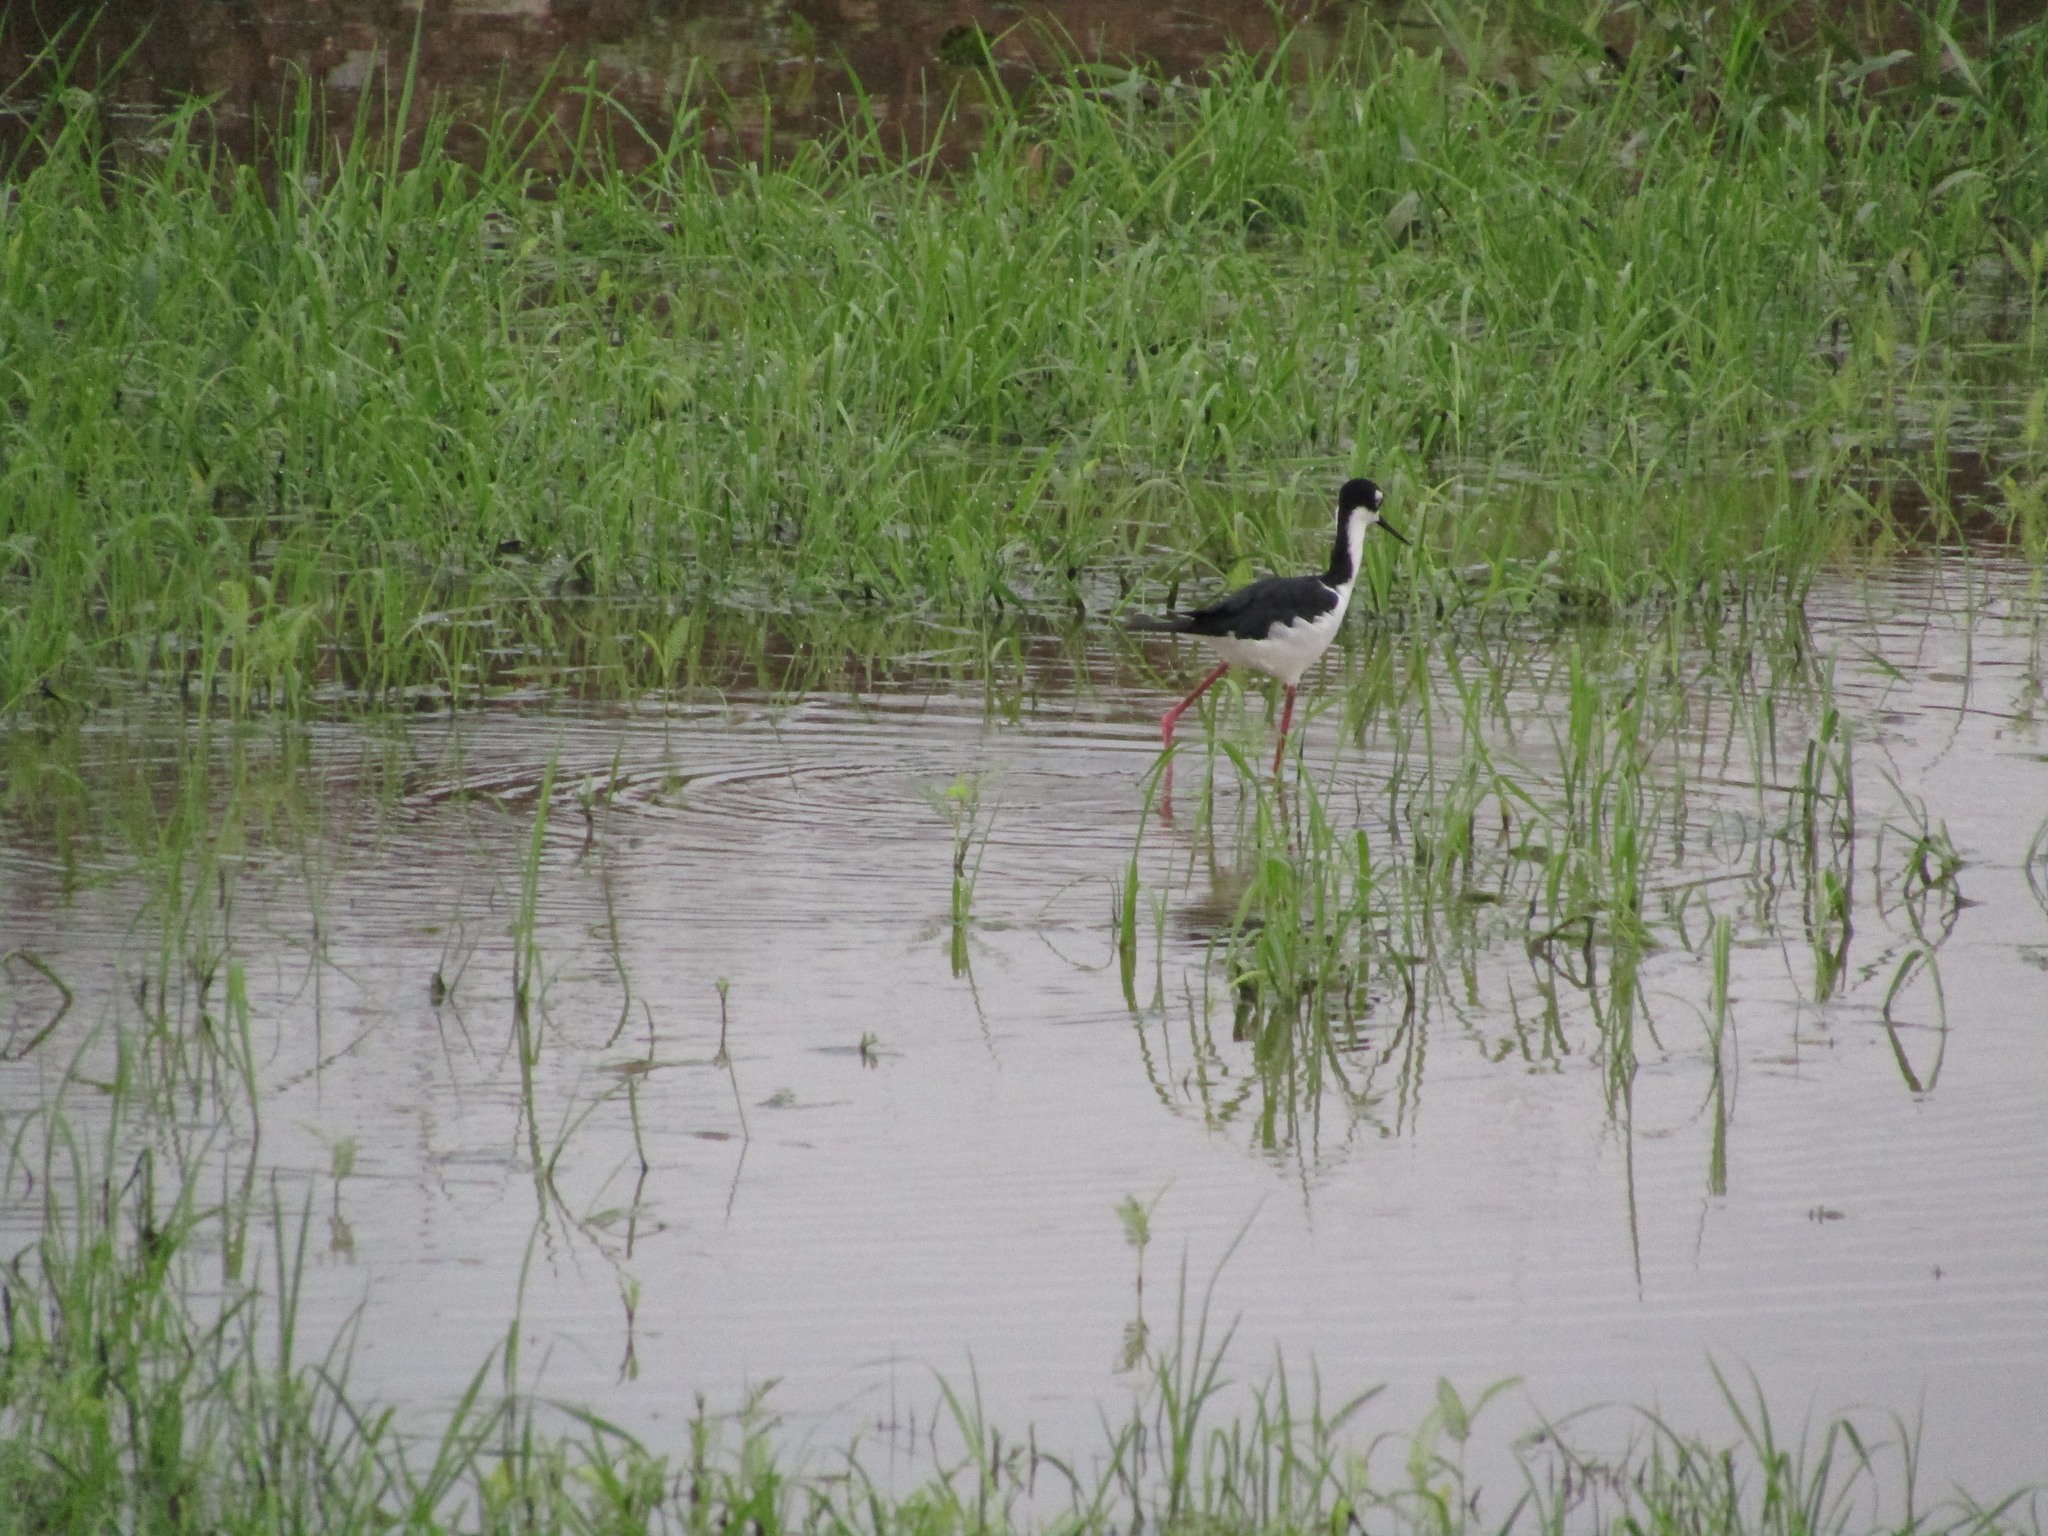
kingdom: Animalia
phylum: Chordata
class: Aves
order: Charadriiformes
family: Recurvirostridae
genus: Himantopus
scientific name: Himantopus mexicanus
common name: Black-necked stilt
